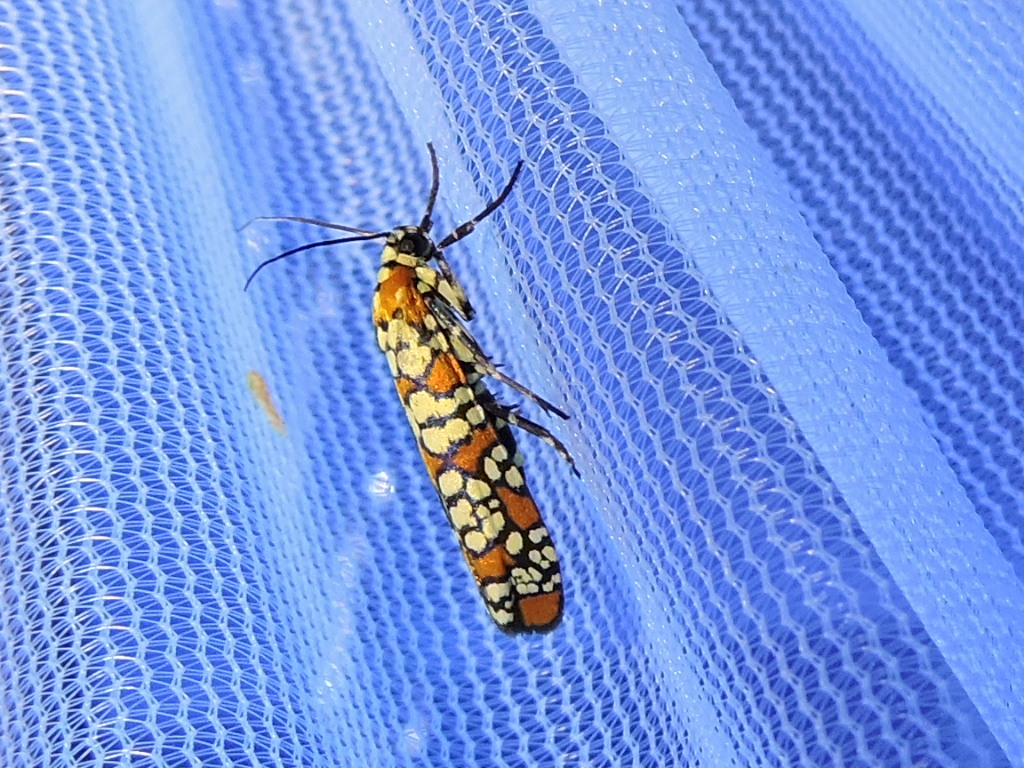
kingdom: Animalia
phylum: Arthropoda
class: Insecta
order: Lepidoptera
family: Attevidae
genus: Atteva
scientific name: Atteva punctella
